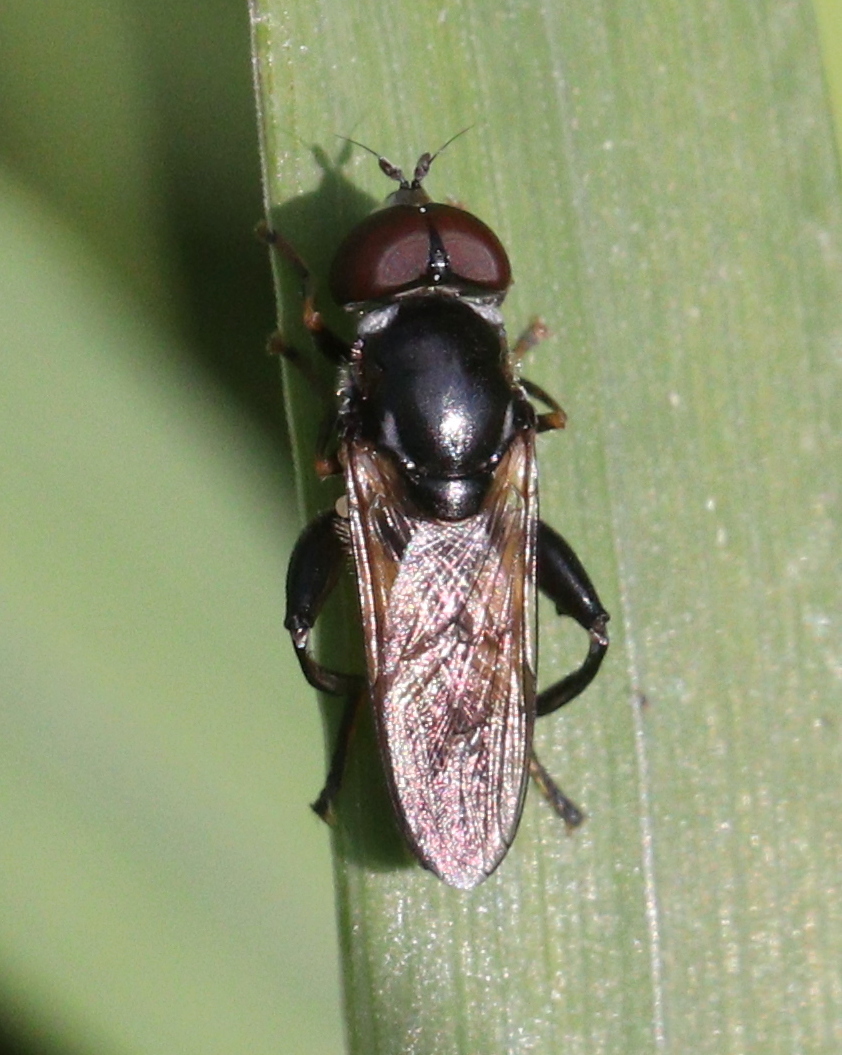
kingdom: Animalia
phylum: Arthropoda
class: Insecta
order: Diptera
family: Syrphidae
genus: Tropidia
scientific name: Tropidia scita
